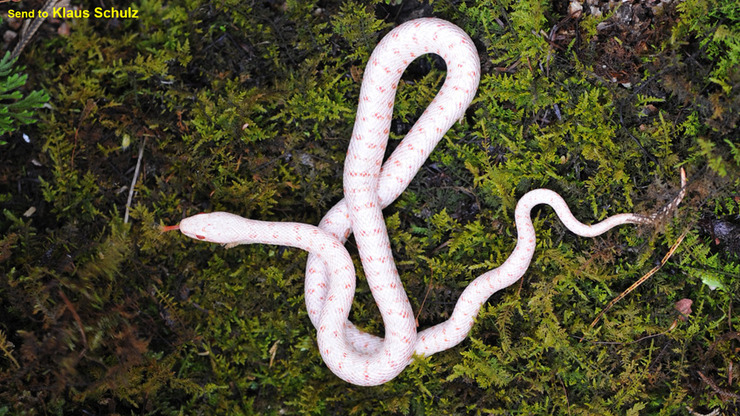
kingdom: Animalia
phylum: Chordata
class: Squamata
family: Colubridae
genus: Elaphe
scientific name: Elaphe dione
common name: Dione ratsnake
